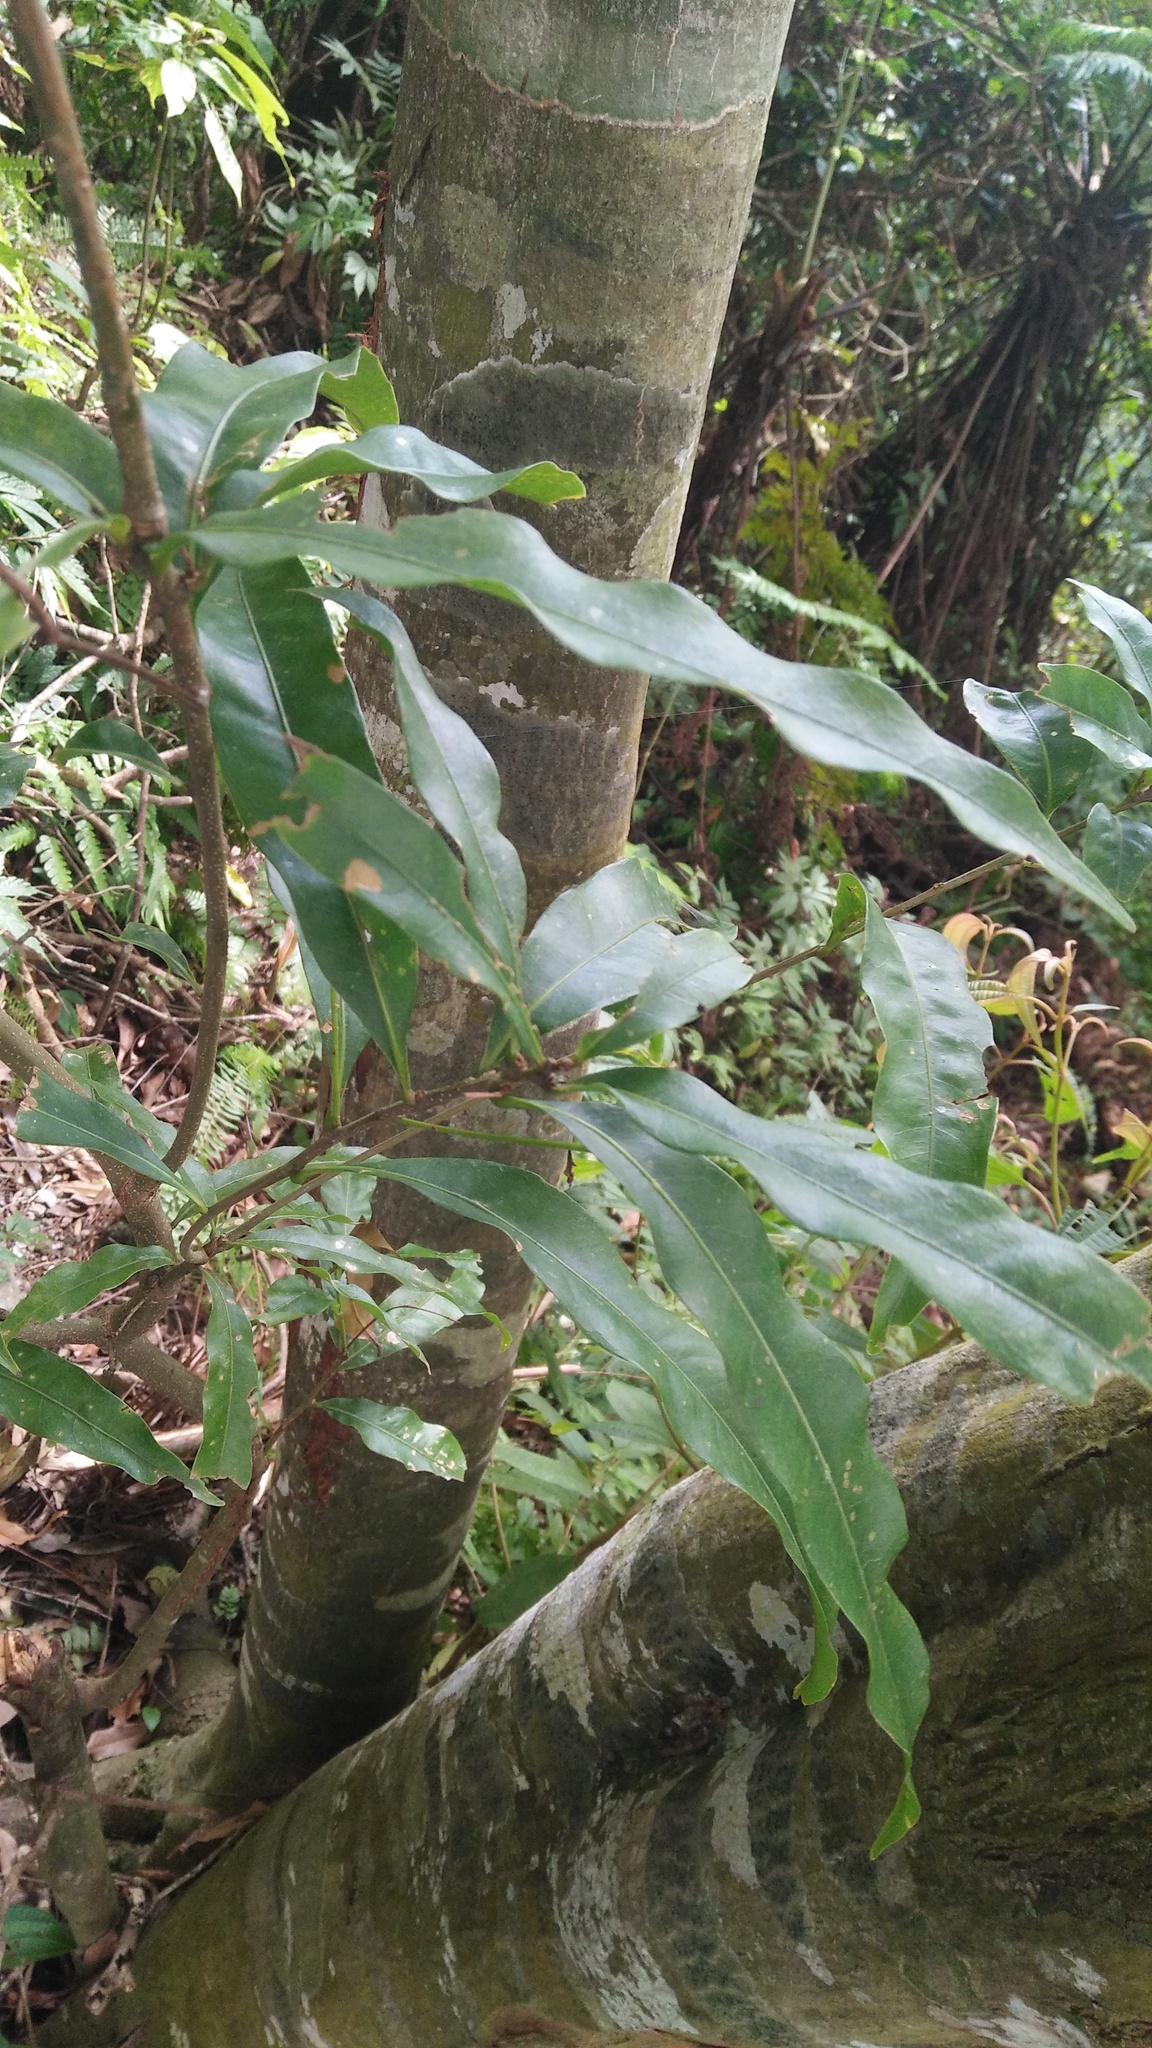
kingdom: Plantae
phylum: Tracheophyta
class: Magnoliopsida
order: Fagales
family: Fagaceae
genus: Lithocarpus
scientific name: Lithocarpus hancei
